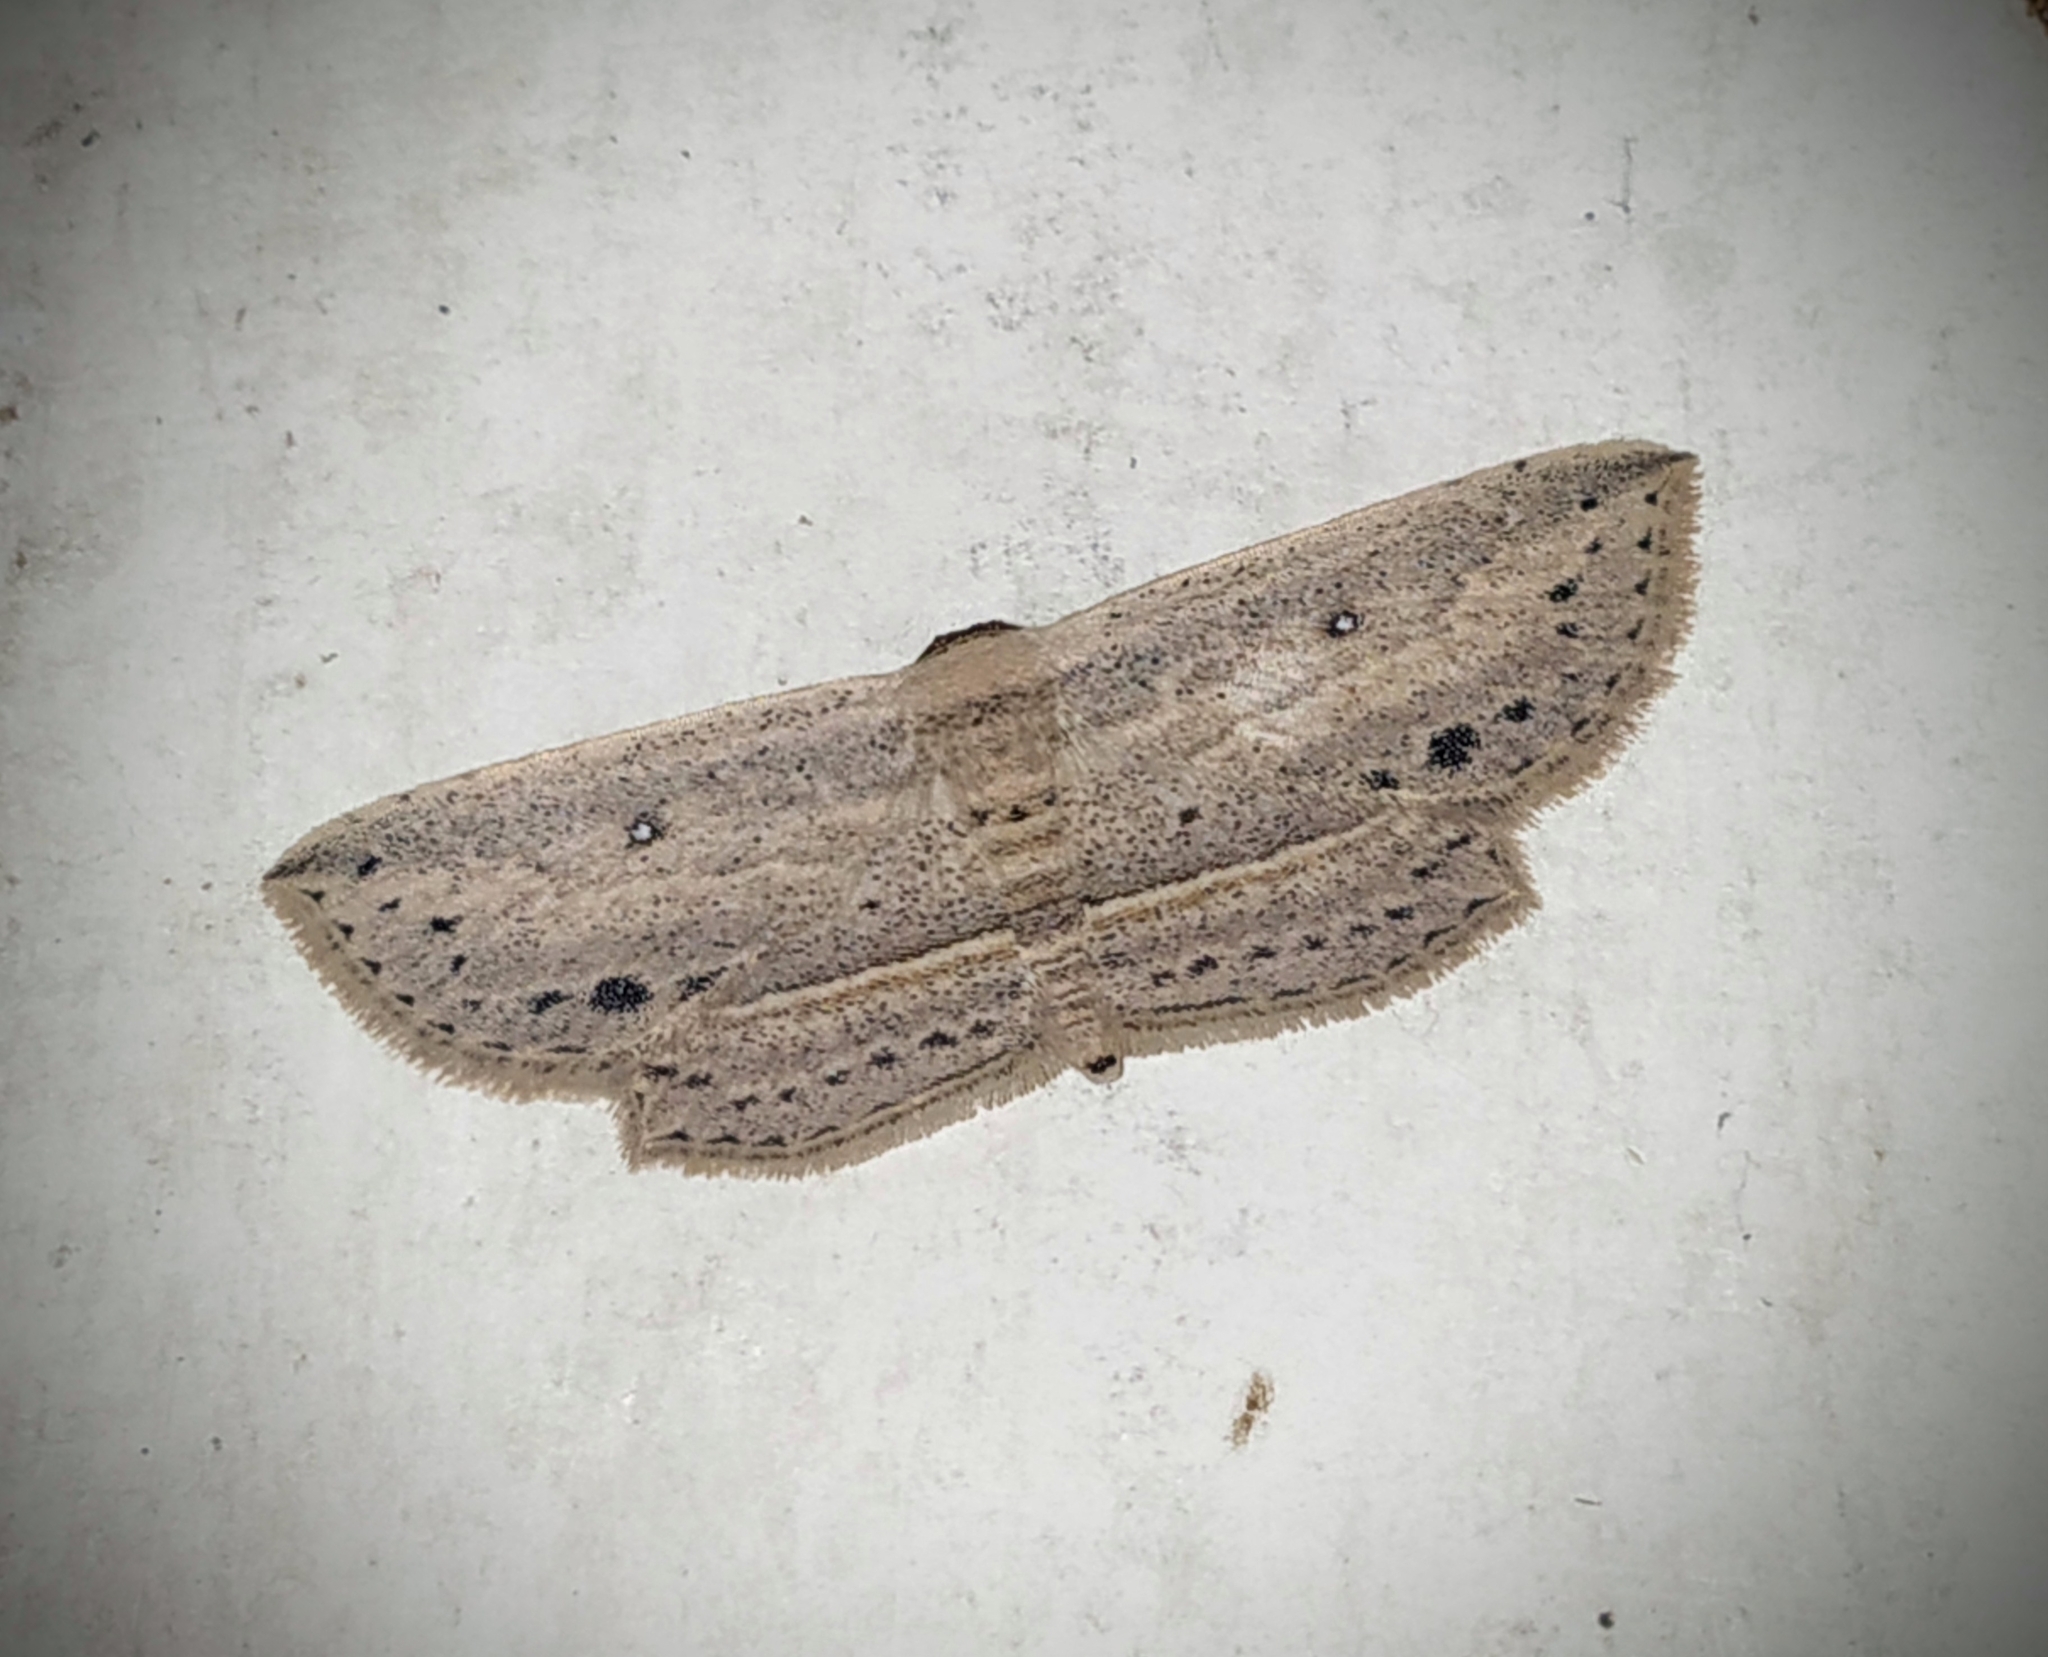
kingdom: Animalia
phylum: Arthropoda
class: Insecta
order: Lepidoptera
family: Noctuidae
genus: Hyposada
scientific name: Hyposada hydrocampata
